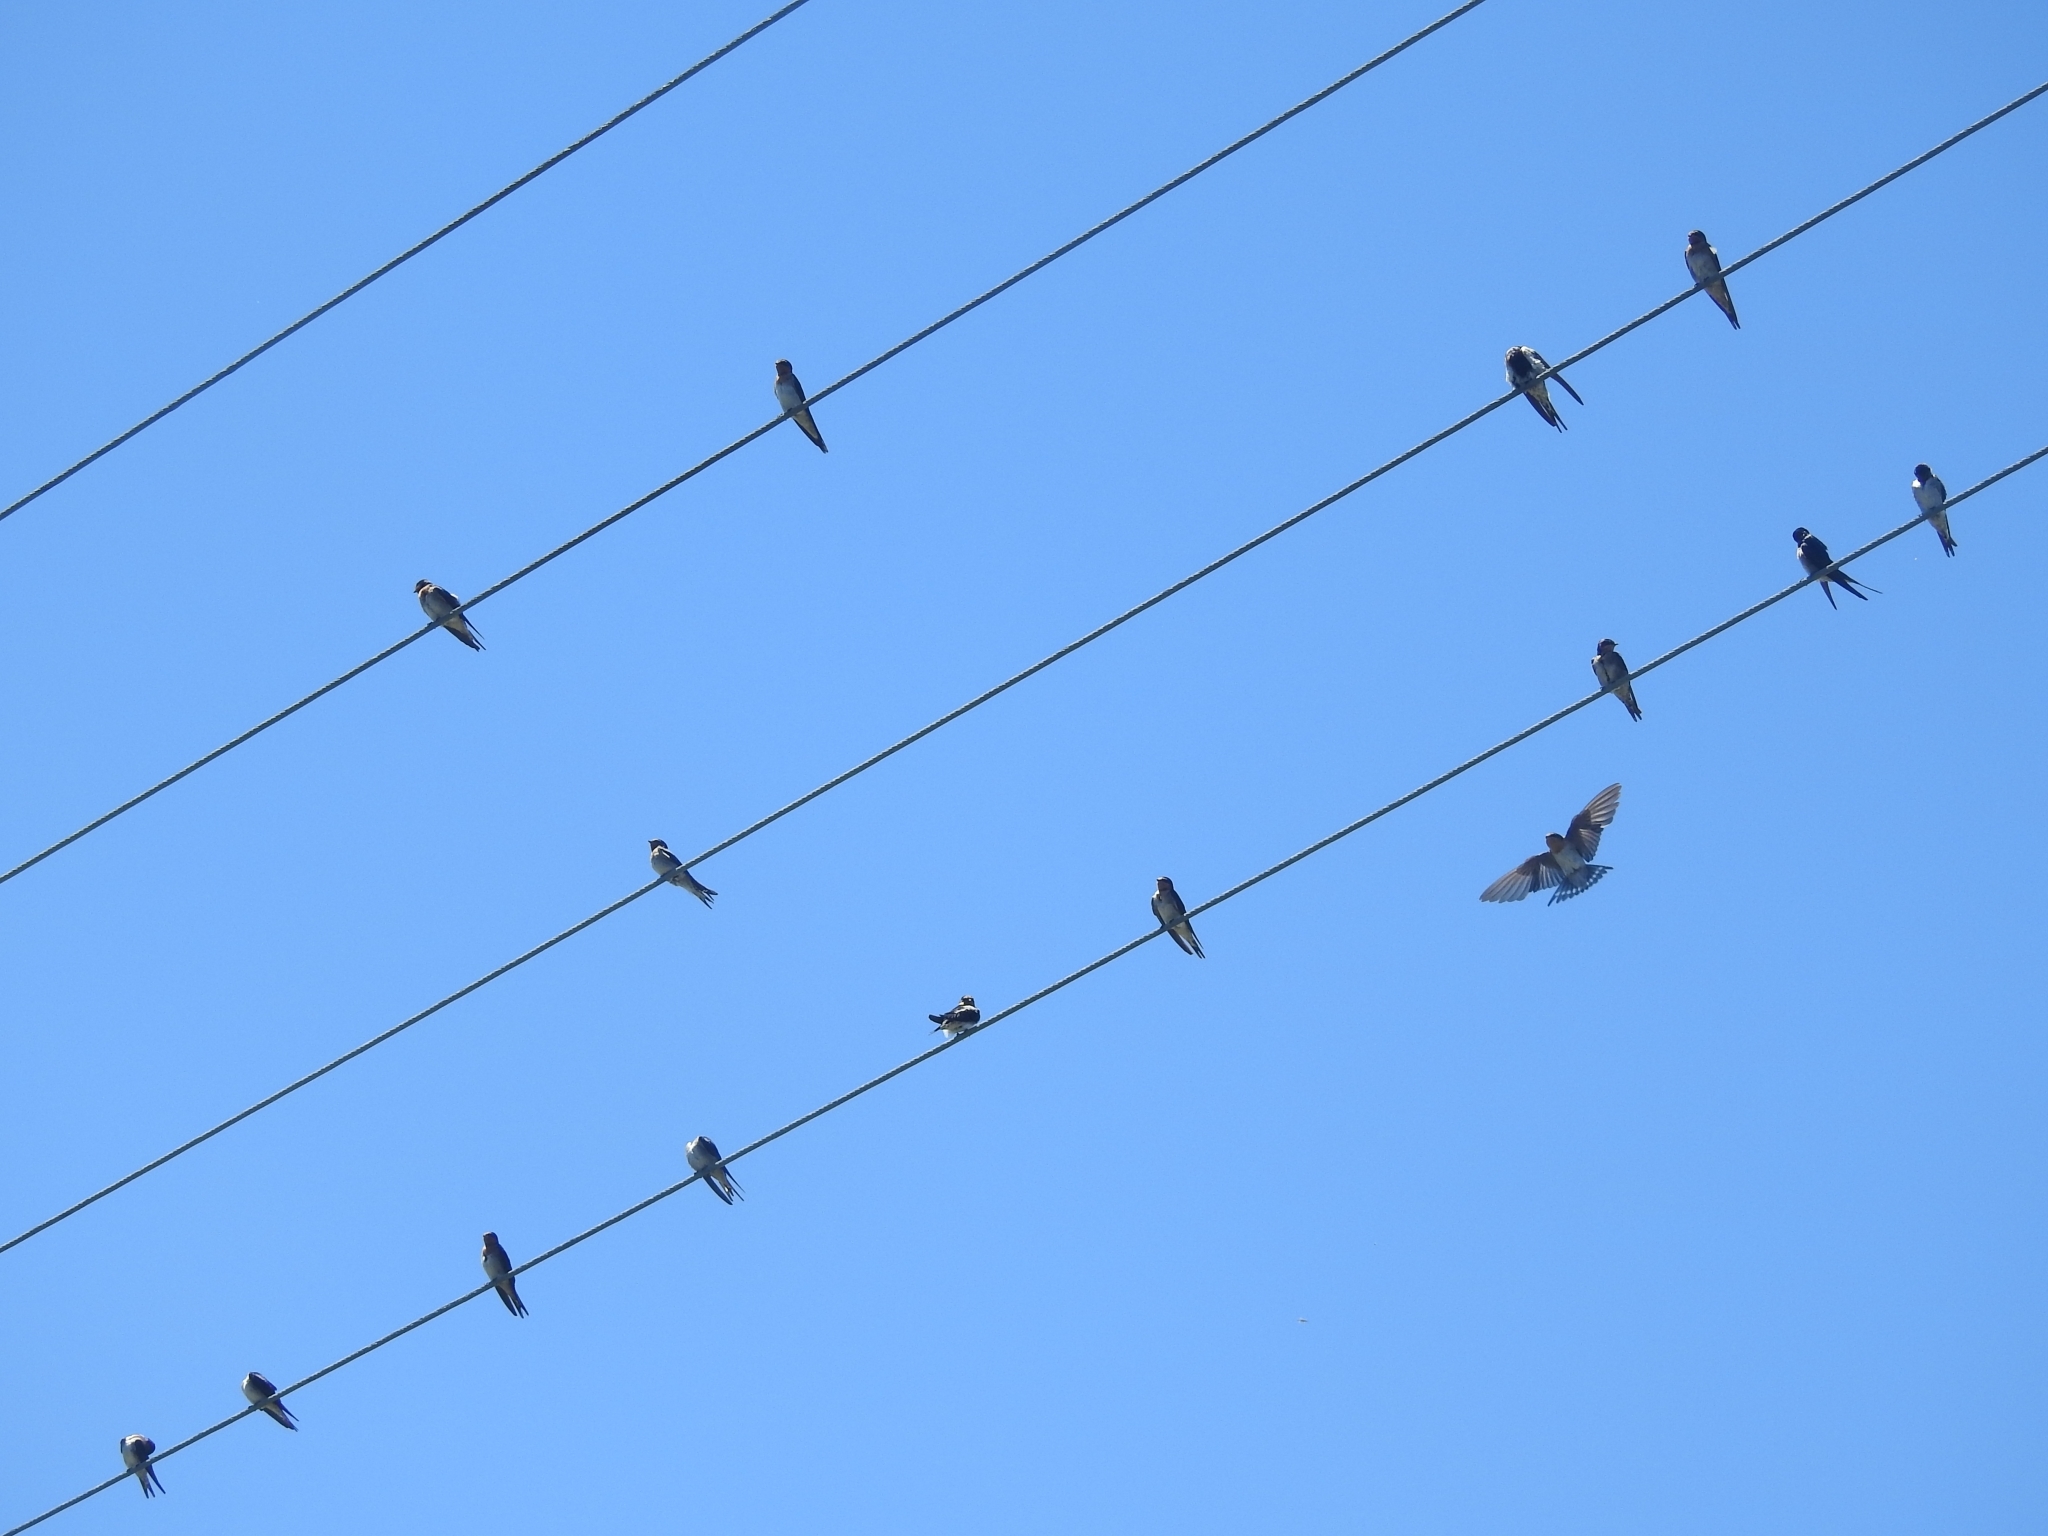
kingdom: Animalia
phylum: Chordata
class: Aves
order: Passeriformes
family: Hirundinidae
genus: Hirundo
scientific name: Hirundo neoxena
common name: Welcome swallow
